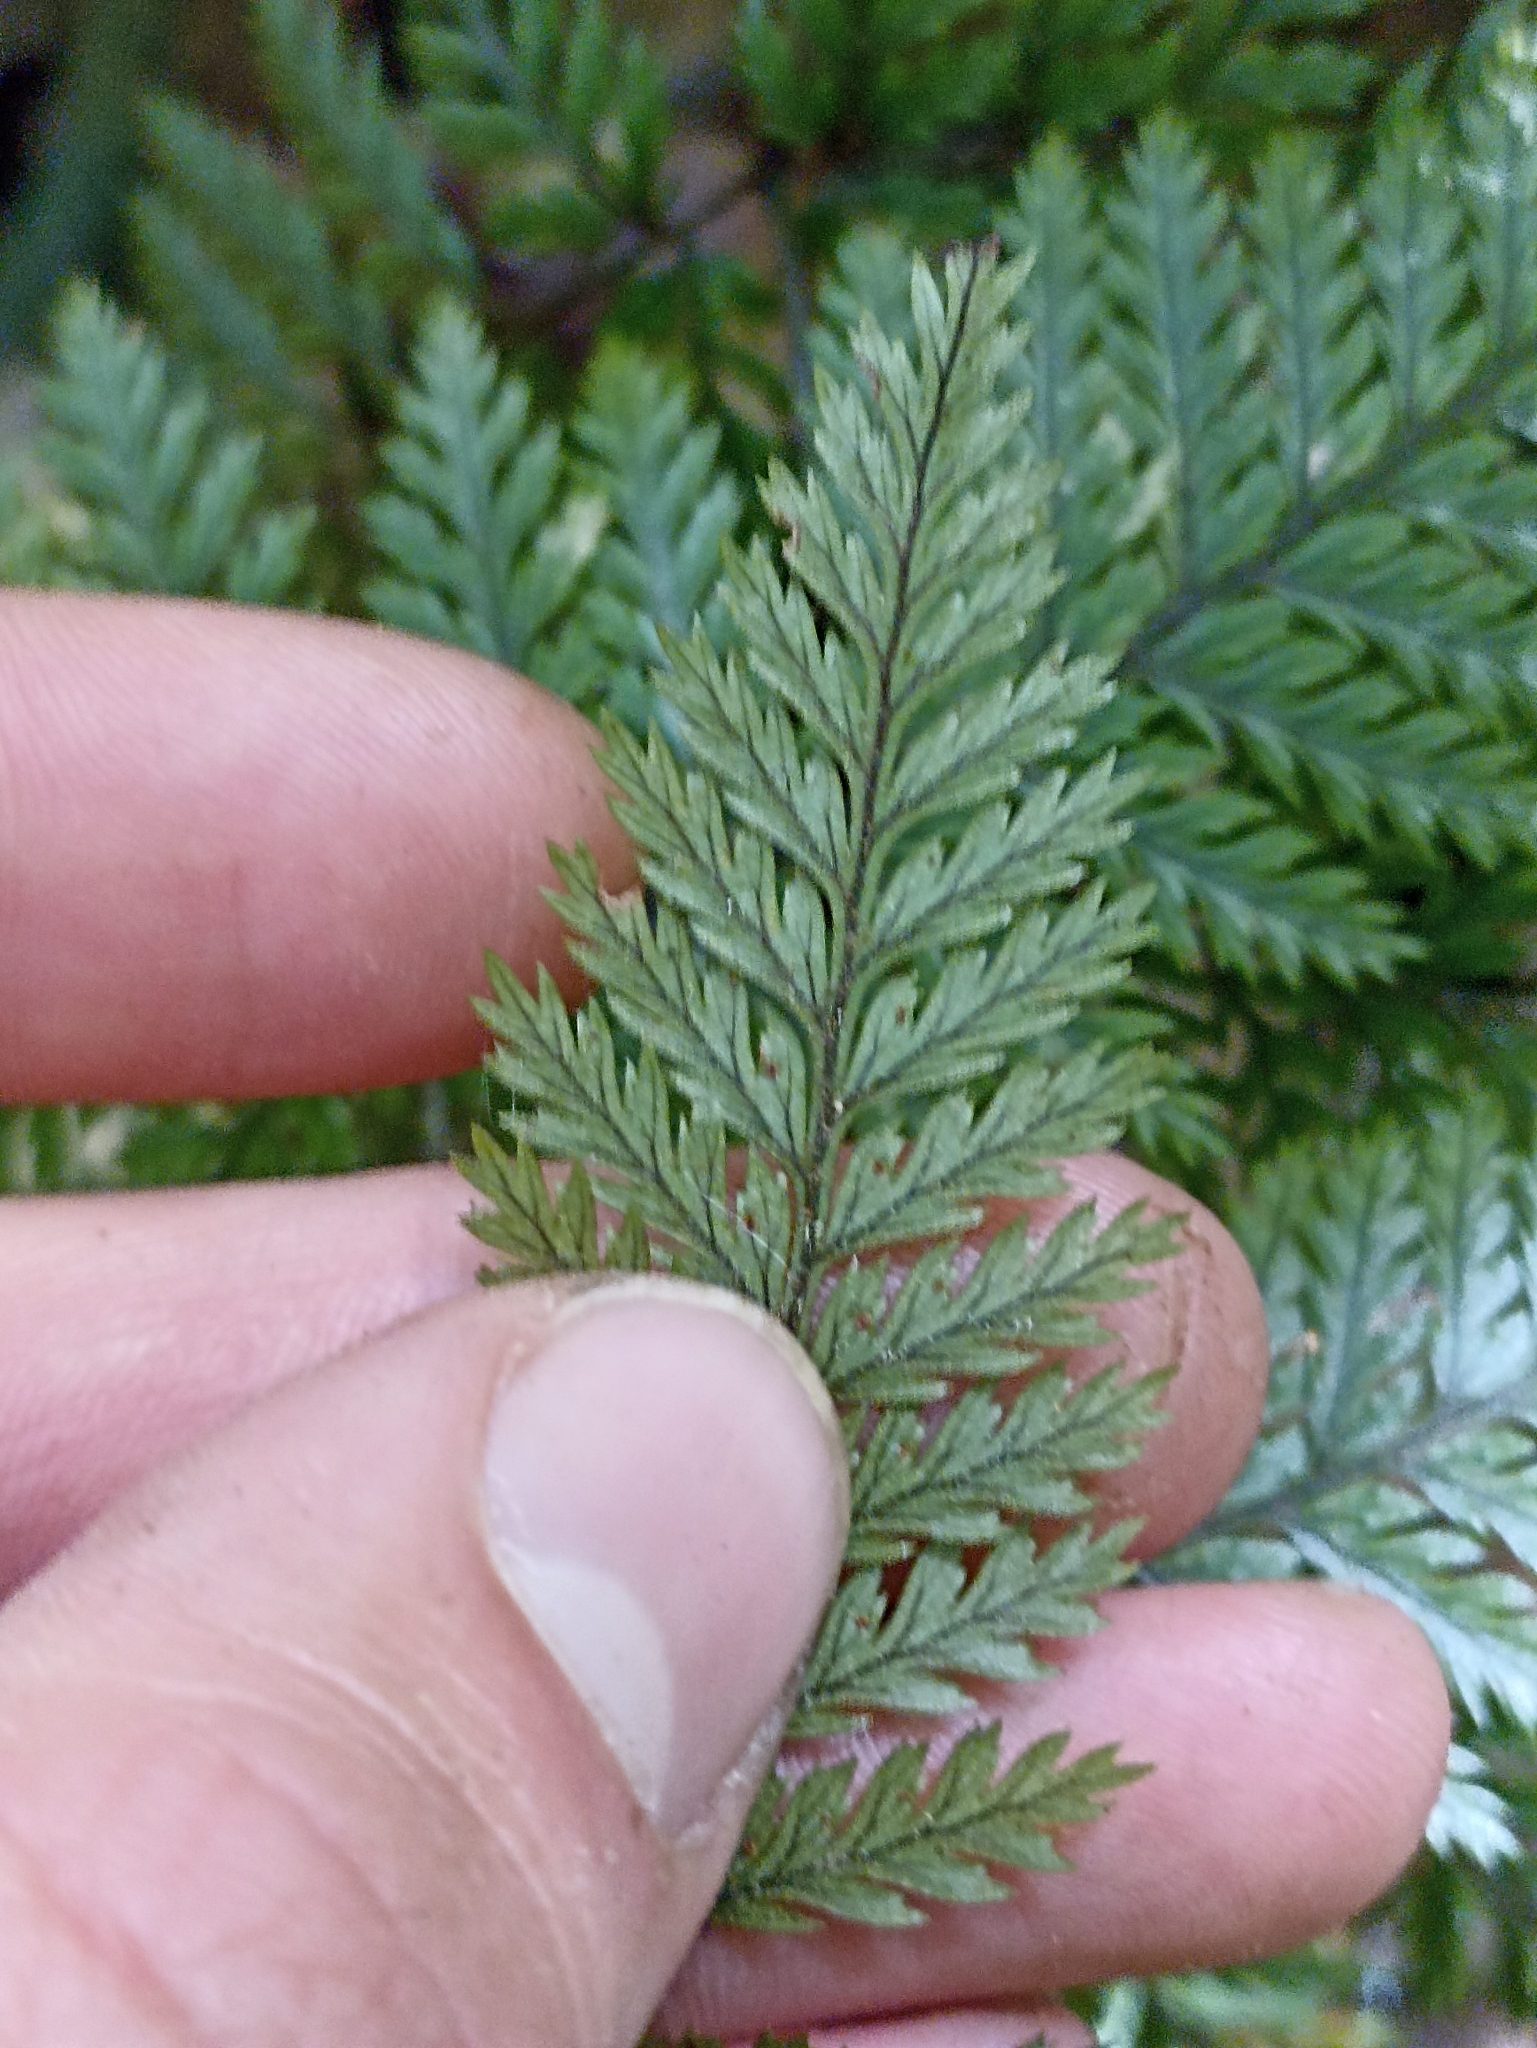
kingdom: Plantae
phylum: Tracheophyta
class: Polypodiopsida
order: Polypodiales
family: Dryopteridaceae
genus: Lastreopsis
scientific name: Lastreopsis hispida
